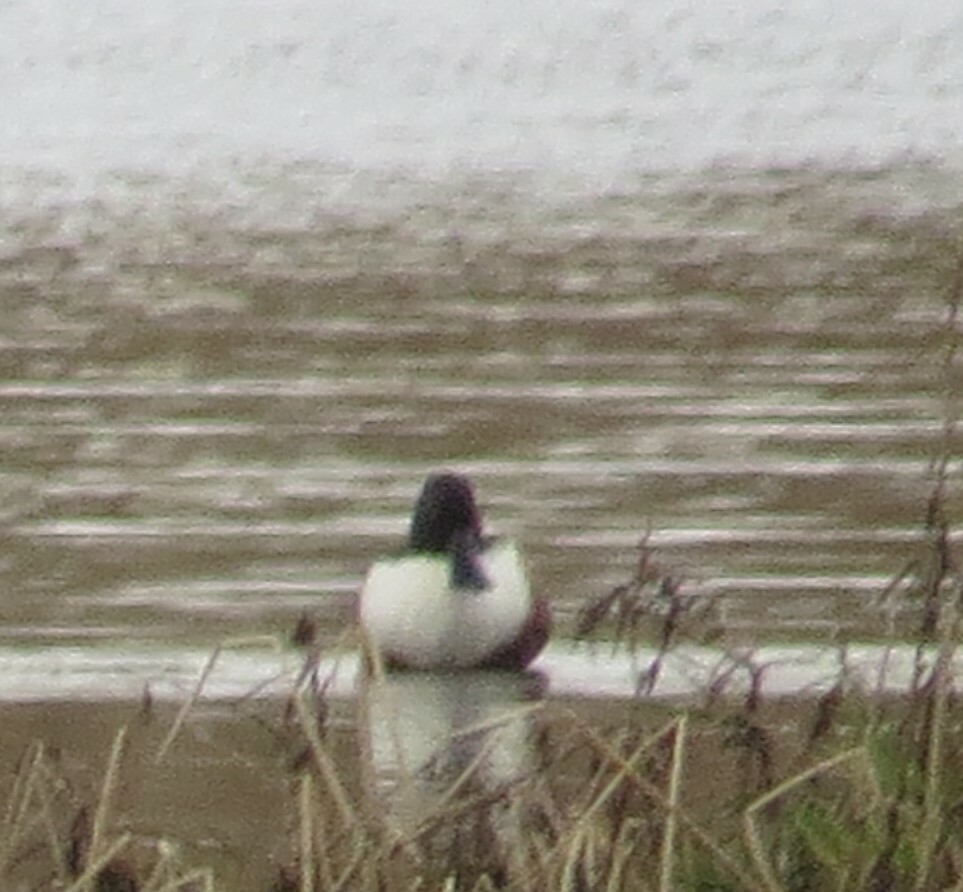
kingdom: Animalia
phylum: Chordata
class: Aves
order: Anseriformes
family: Anatidae
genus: Spatula
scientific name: Spatula clypeata
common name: Northern shoveler
